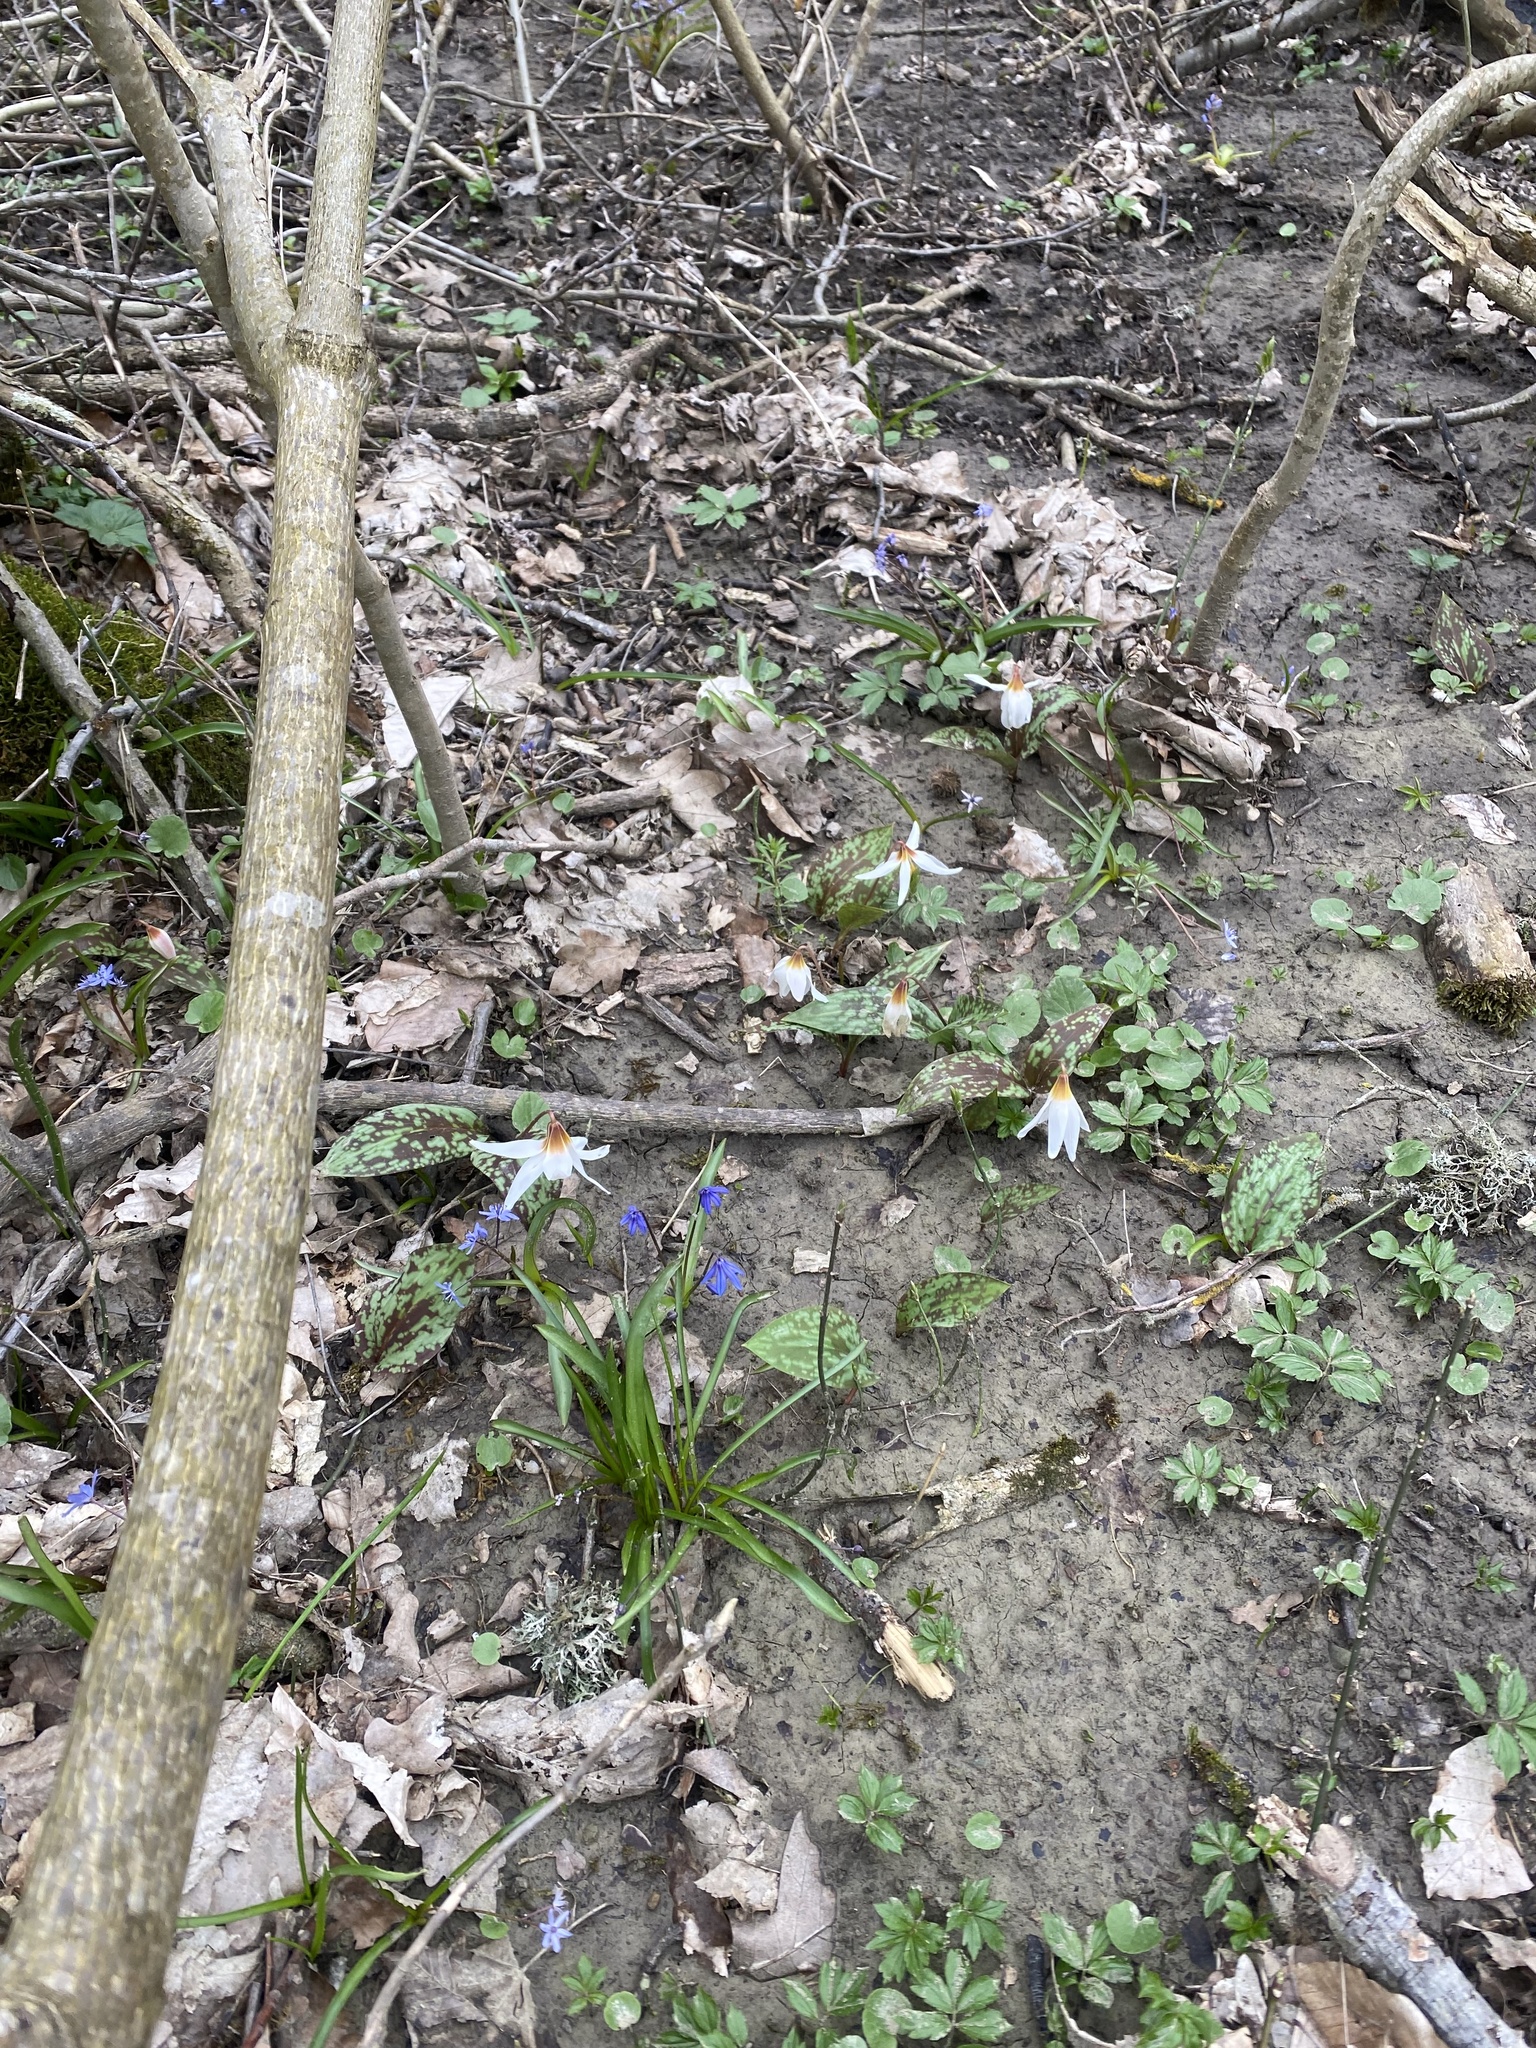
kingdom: Plantae
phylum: Tracheophyta
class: Liliopsida
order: Liliales
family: Liliaceae
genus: Erythronium
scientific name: Erythronium caucasicum
